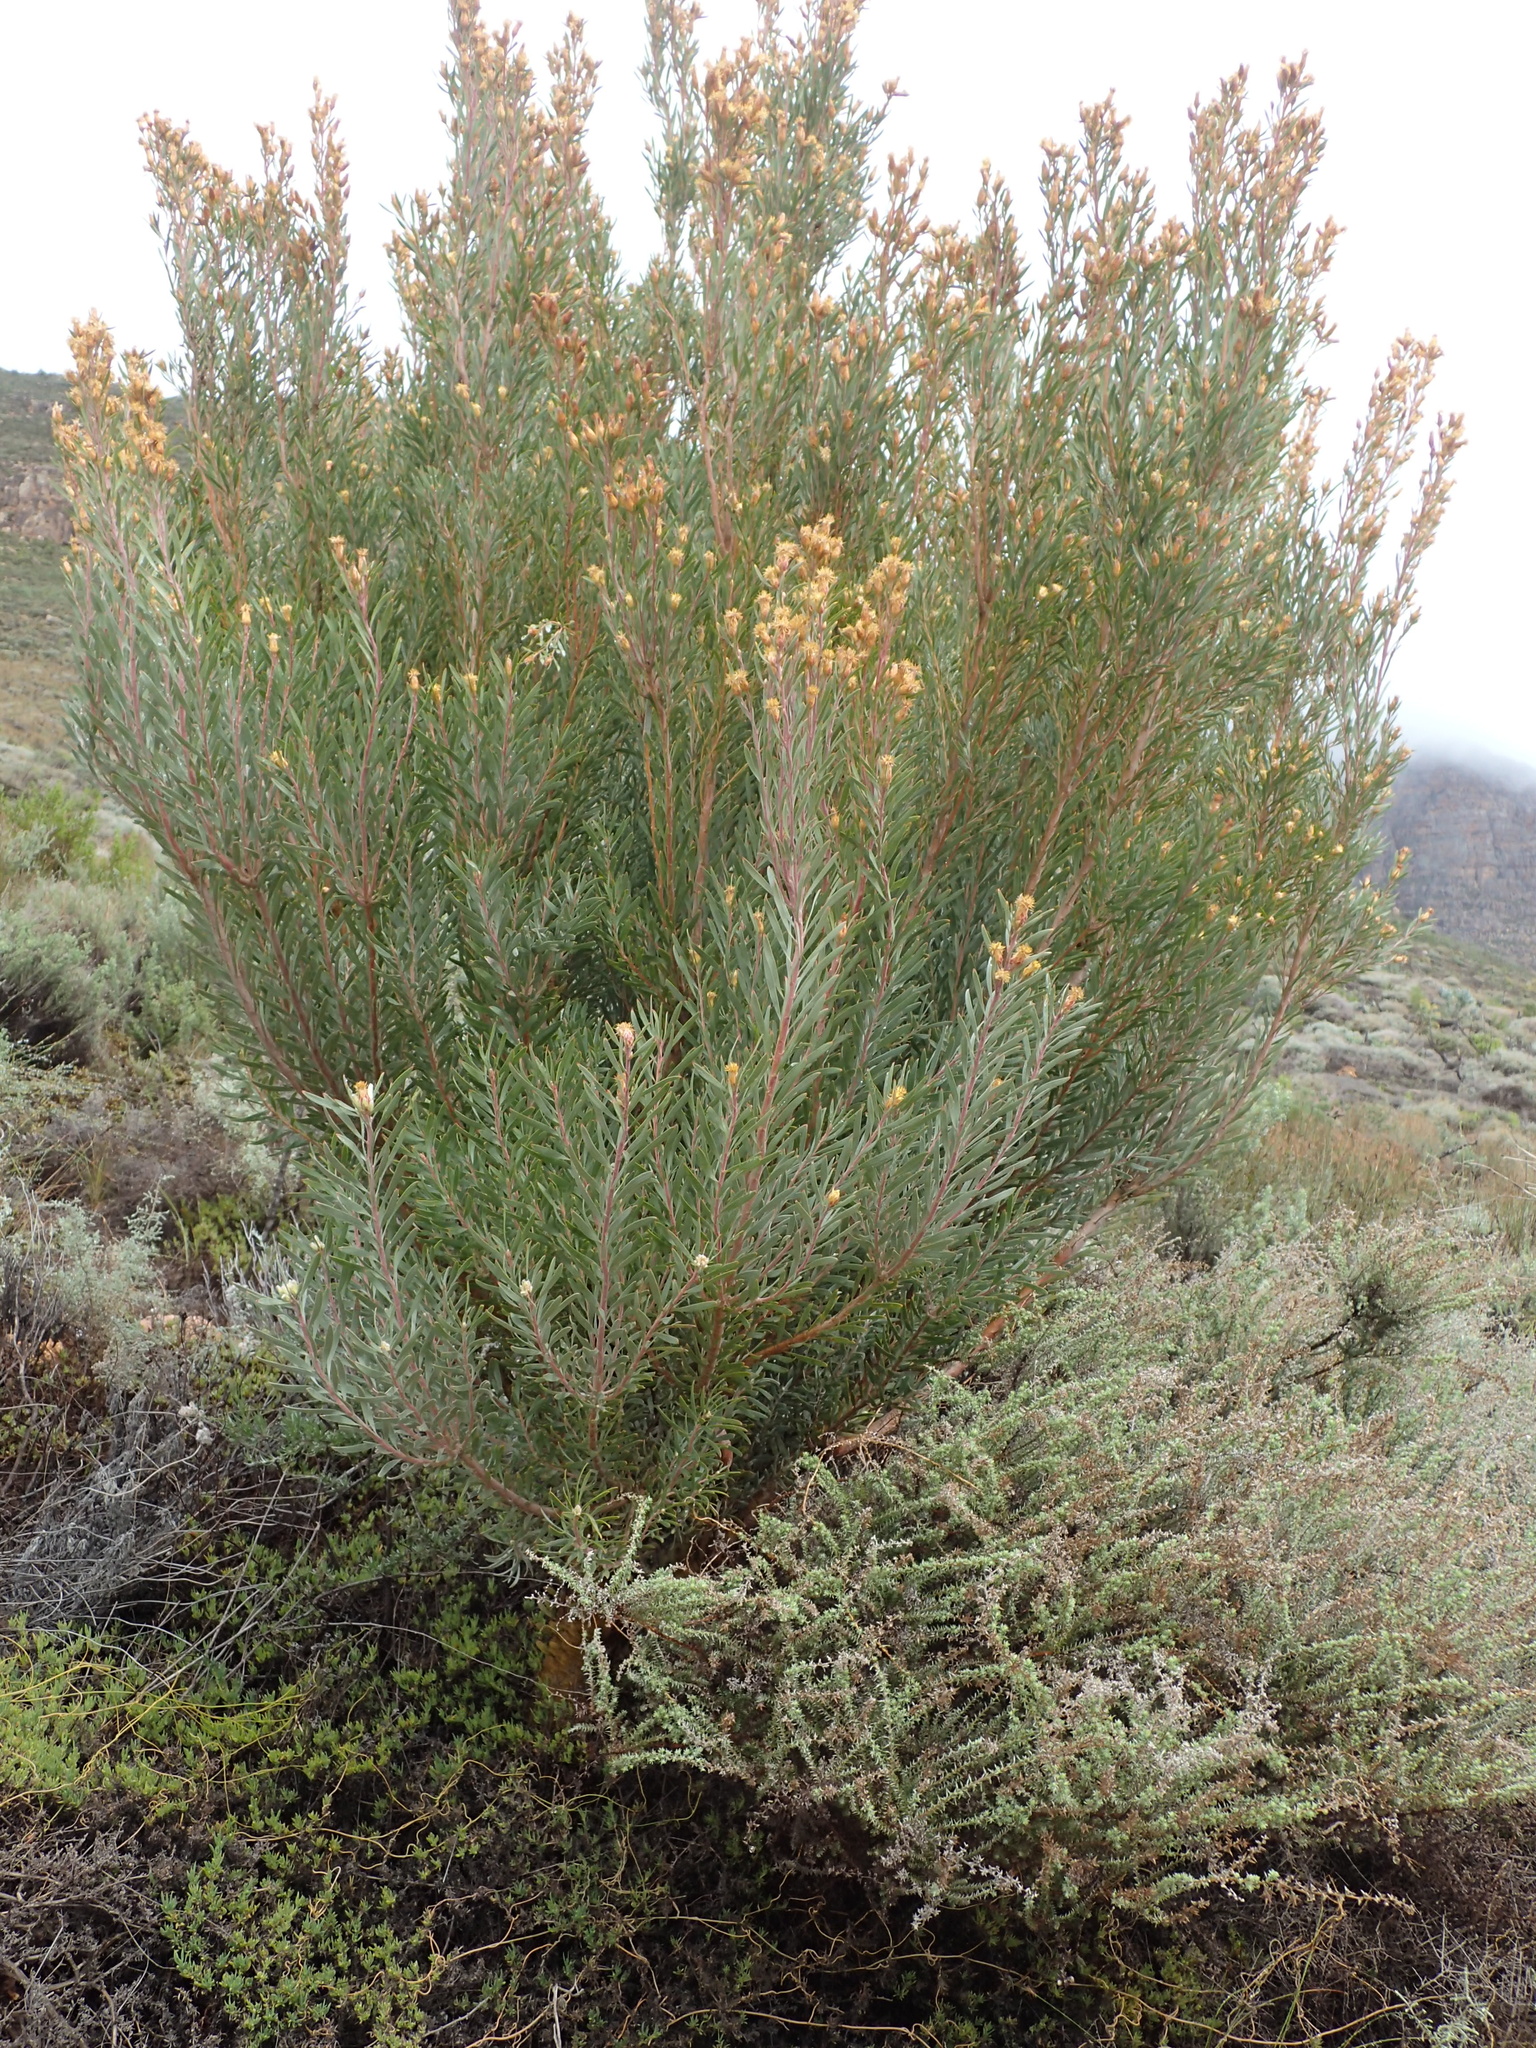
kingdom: Plantae
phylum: Tracheophyta
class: Magnoliopsida
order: Proteales
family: Proteaceae
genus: Leucadendron
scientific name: Leucadendron rubrum
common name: Spinning top
